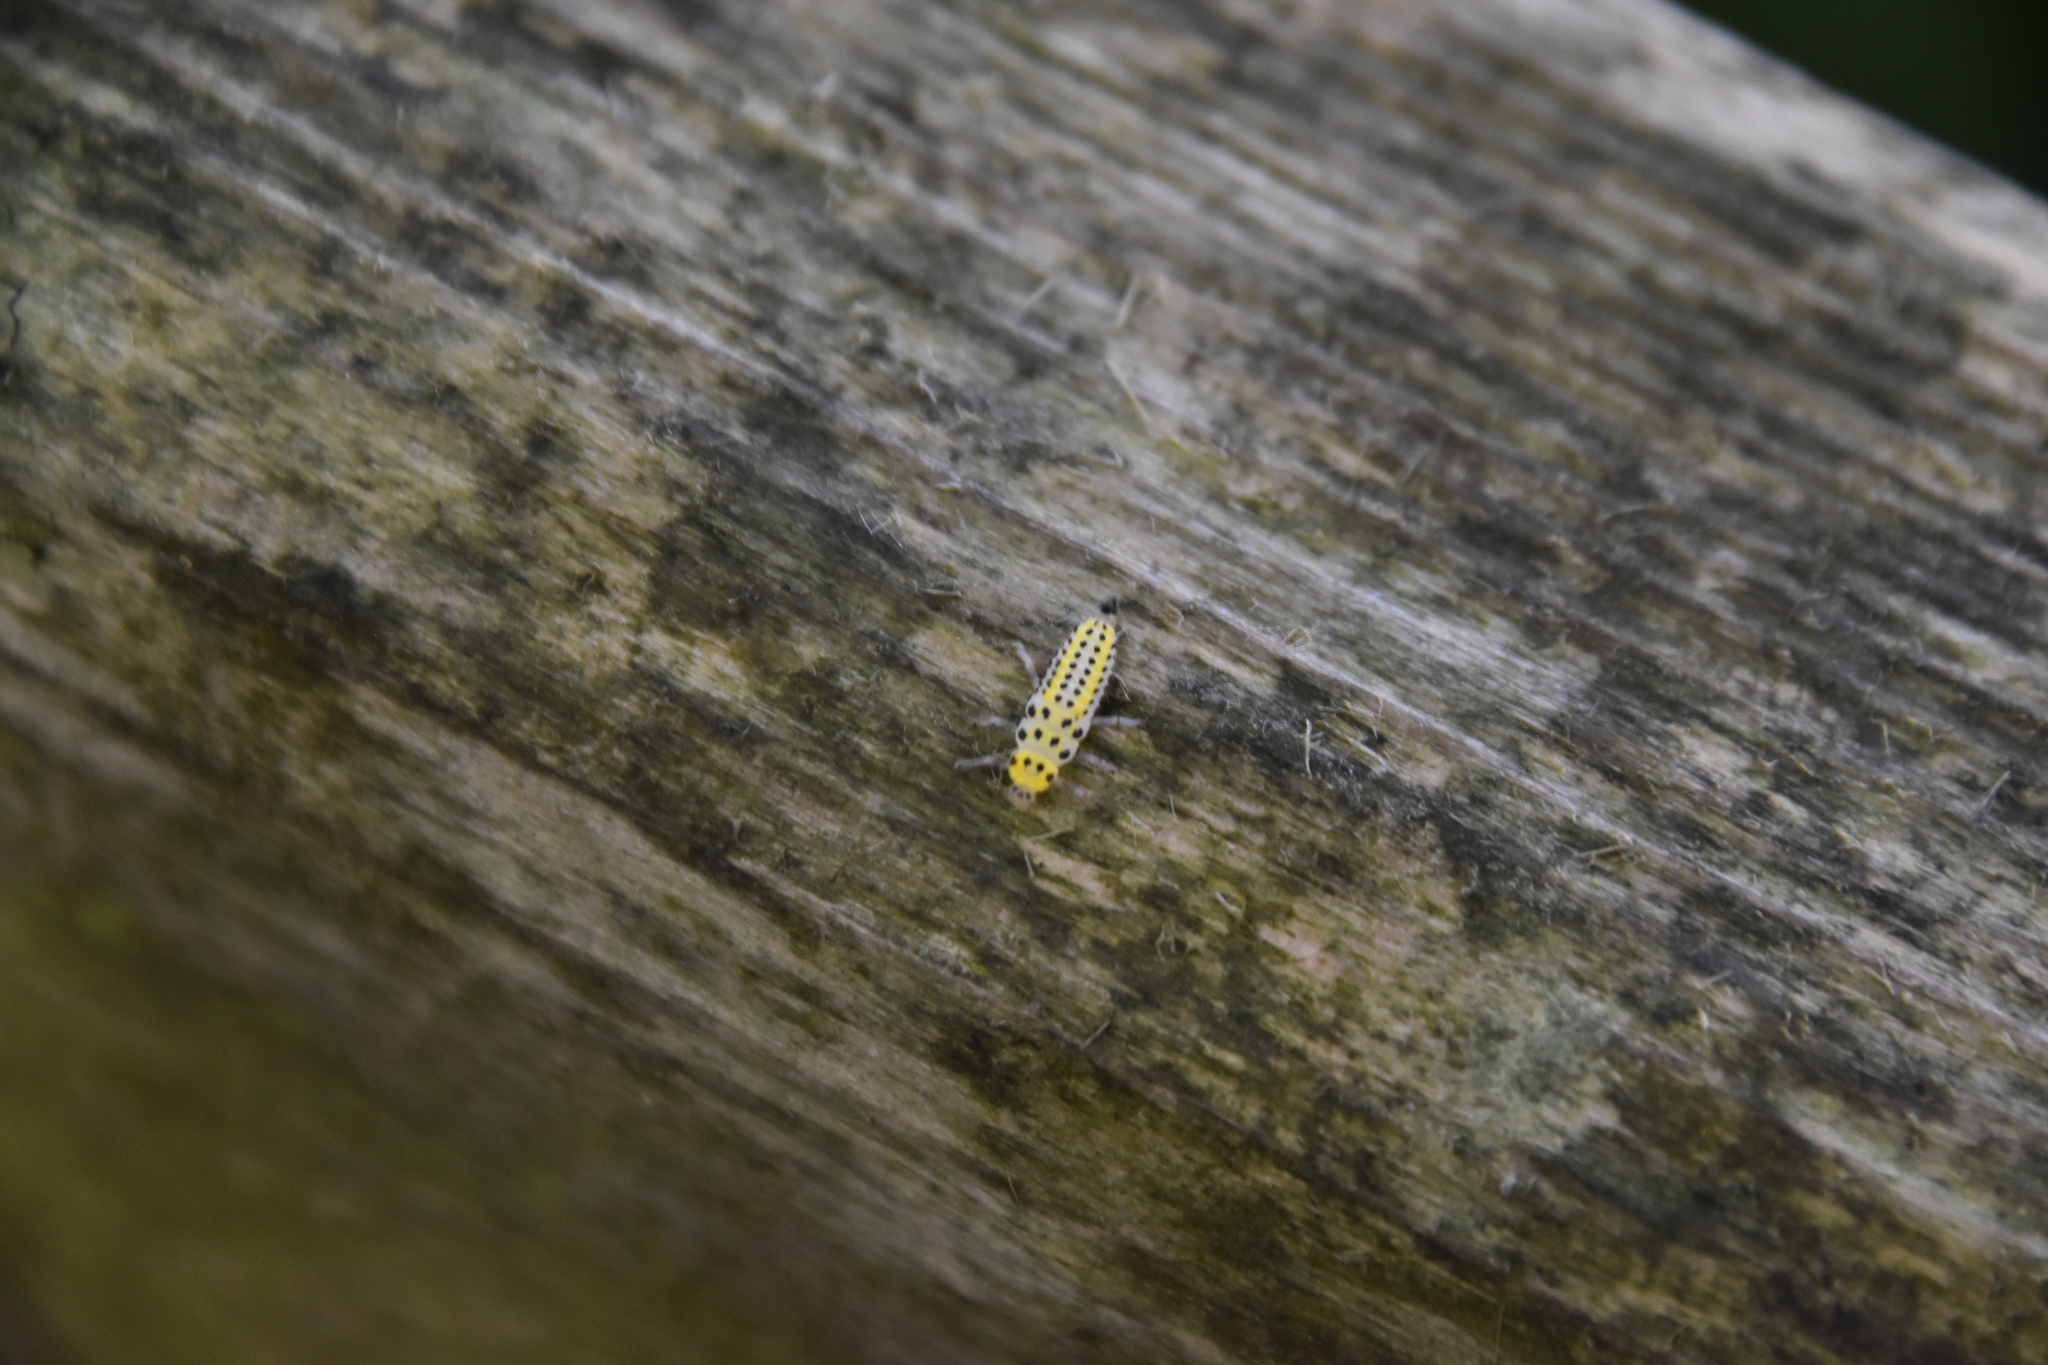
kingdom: Animalia
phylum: Arthropoda
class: Insecta
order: Coleoptera
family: Coccinellidae
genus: Halyzia
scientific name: Halyzia sedecimguttata
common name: Orange ladybird
